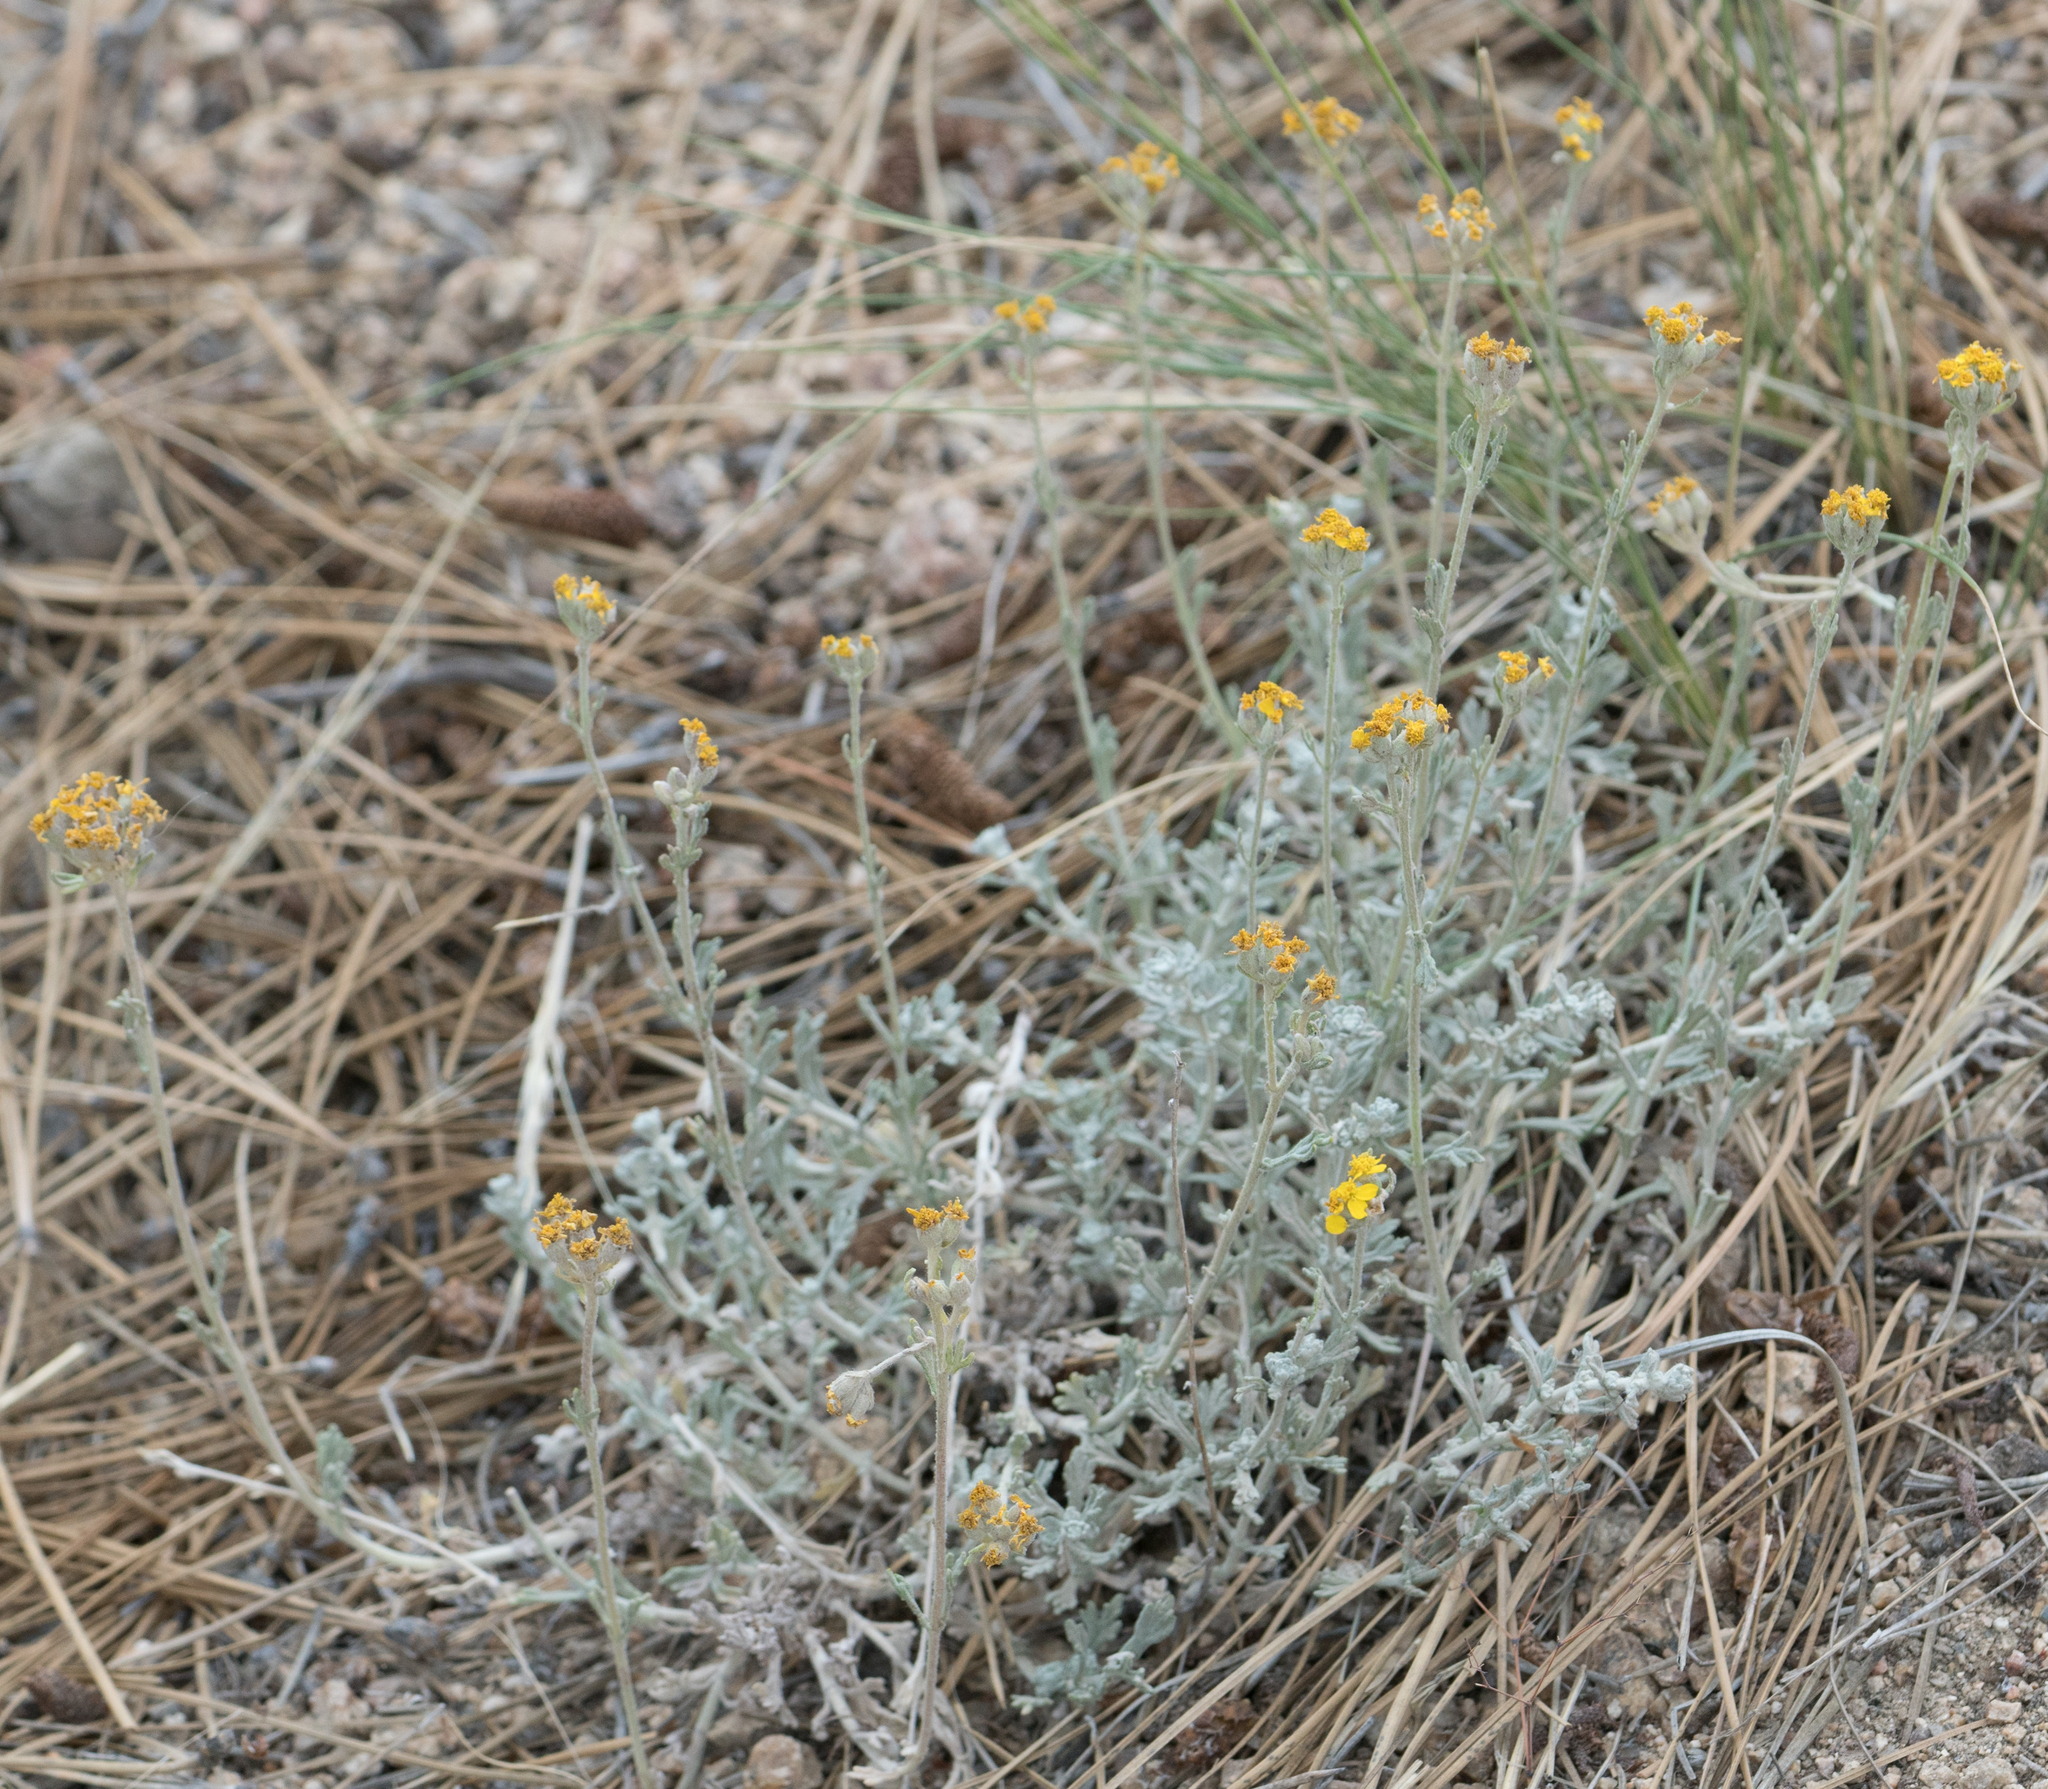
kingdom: Plantae
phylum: Tracheophyta
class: Magnoliopsida
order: Asterales
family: Asteraceae
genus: Eriophyllum
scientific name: Eriophyllum confertiflorum
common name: Golden-yarrow
